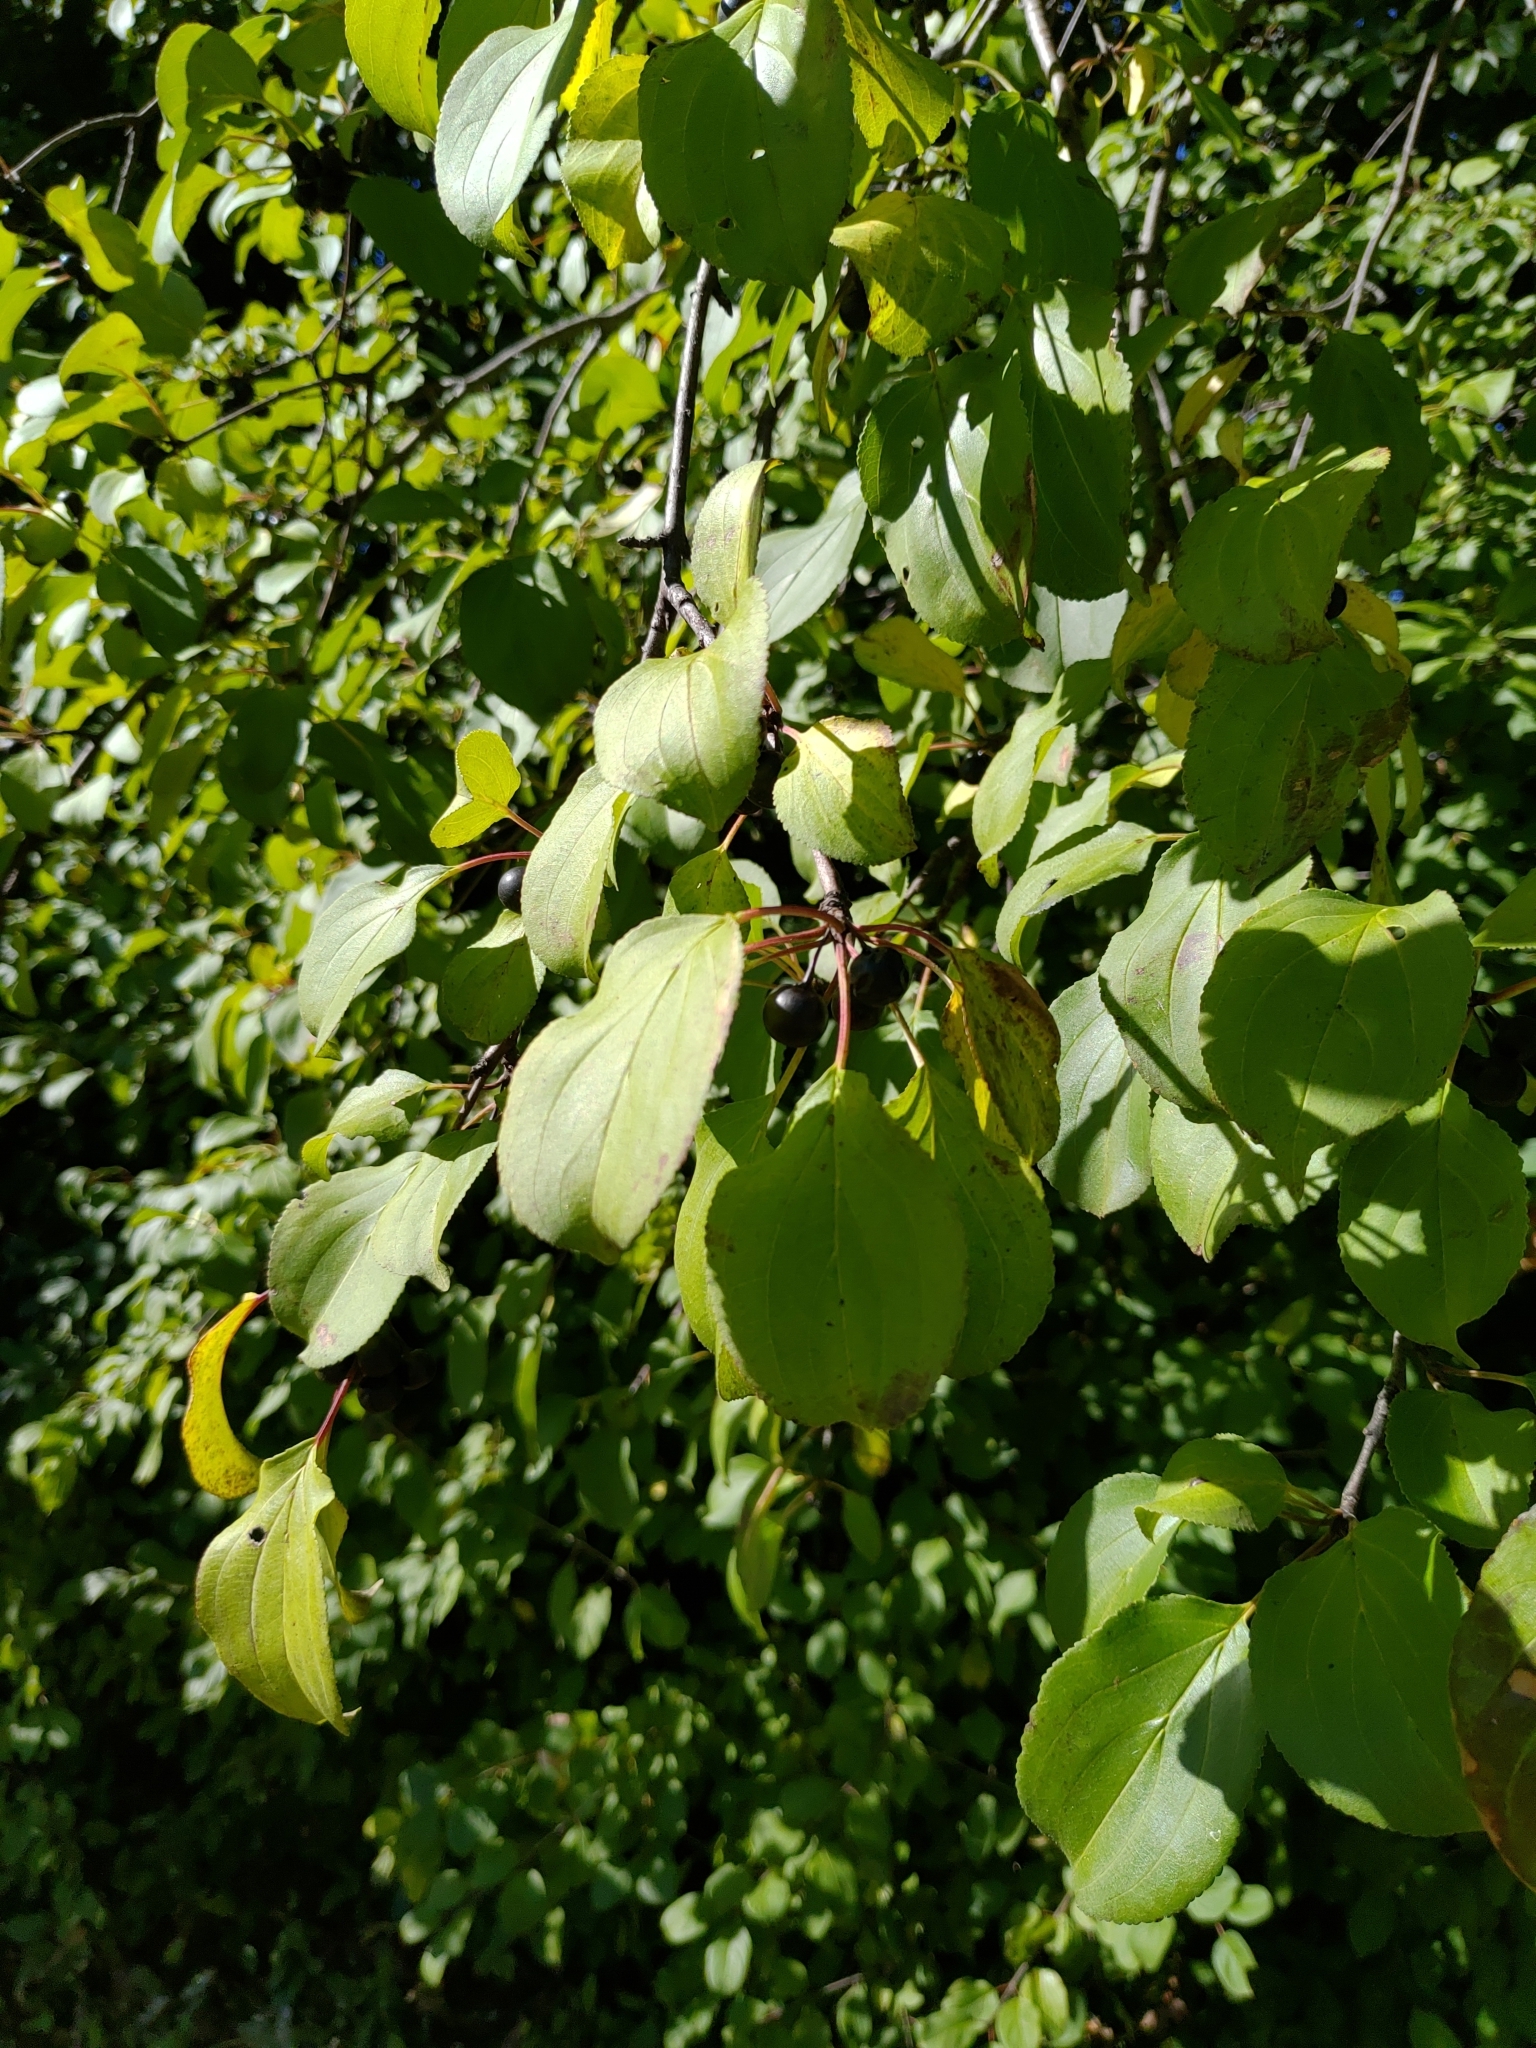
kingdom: Plantae
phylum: Tracheophyta
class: Magnoliopsida
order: Rosales
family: Rhamnaceae
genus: Rhamnus
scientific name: Rhamnus cathartica
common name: Common buckthorn
